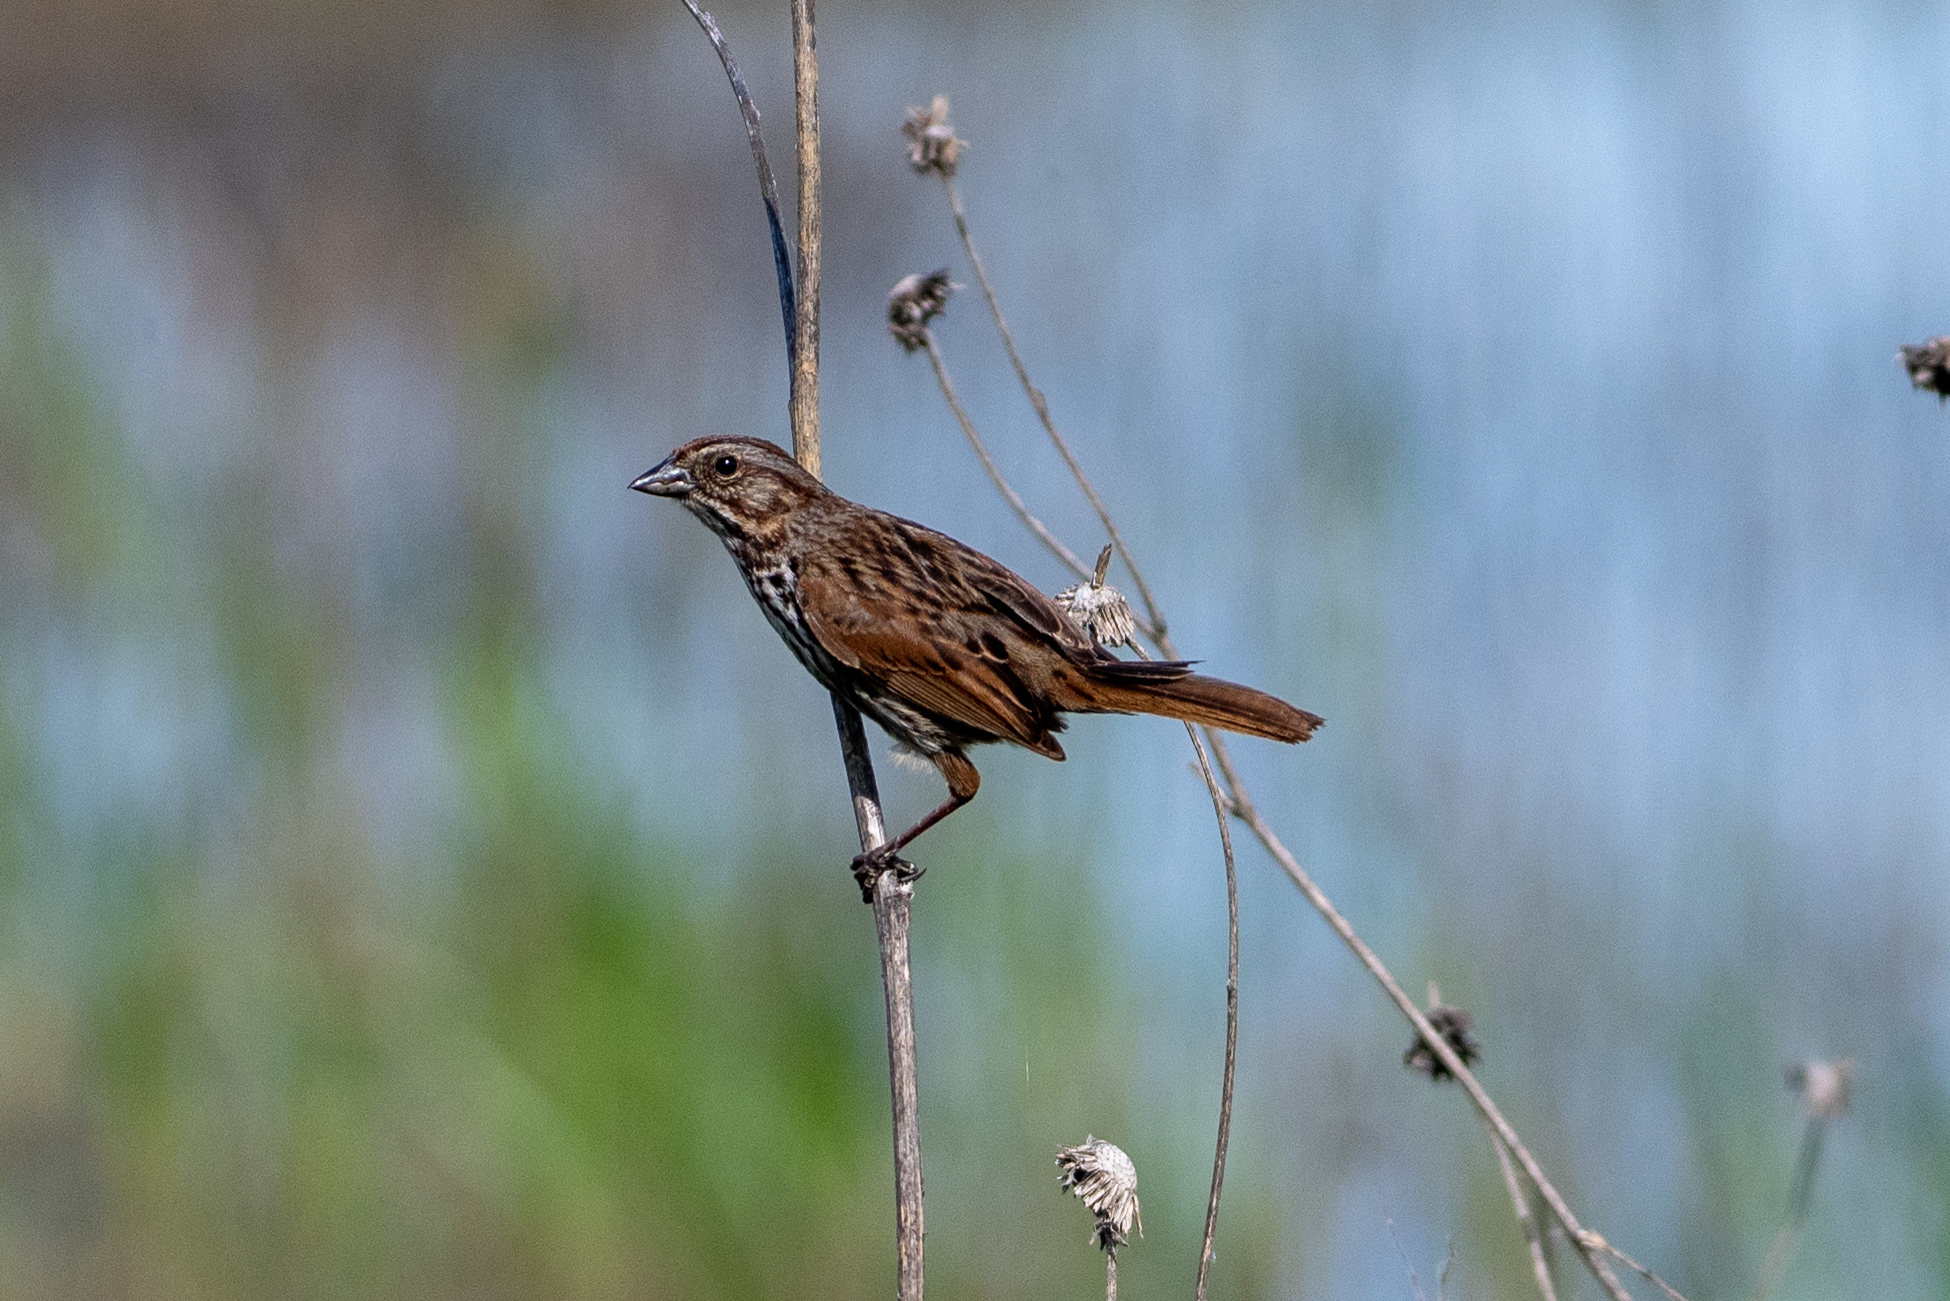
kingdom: Animalia
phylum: Chordata
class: Aves
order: Passeriformes
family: Passerellidae
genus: Melospiza
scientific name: Melospiza melodia
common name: Song sparrow
